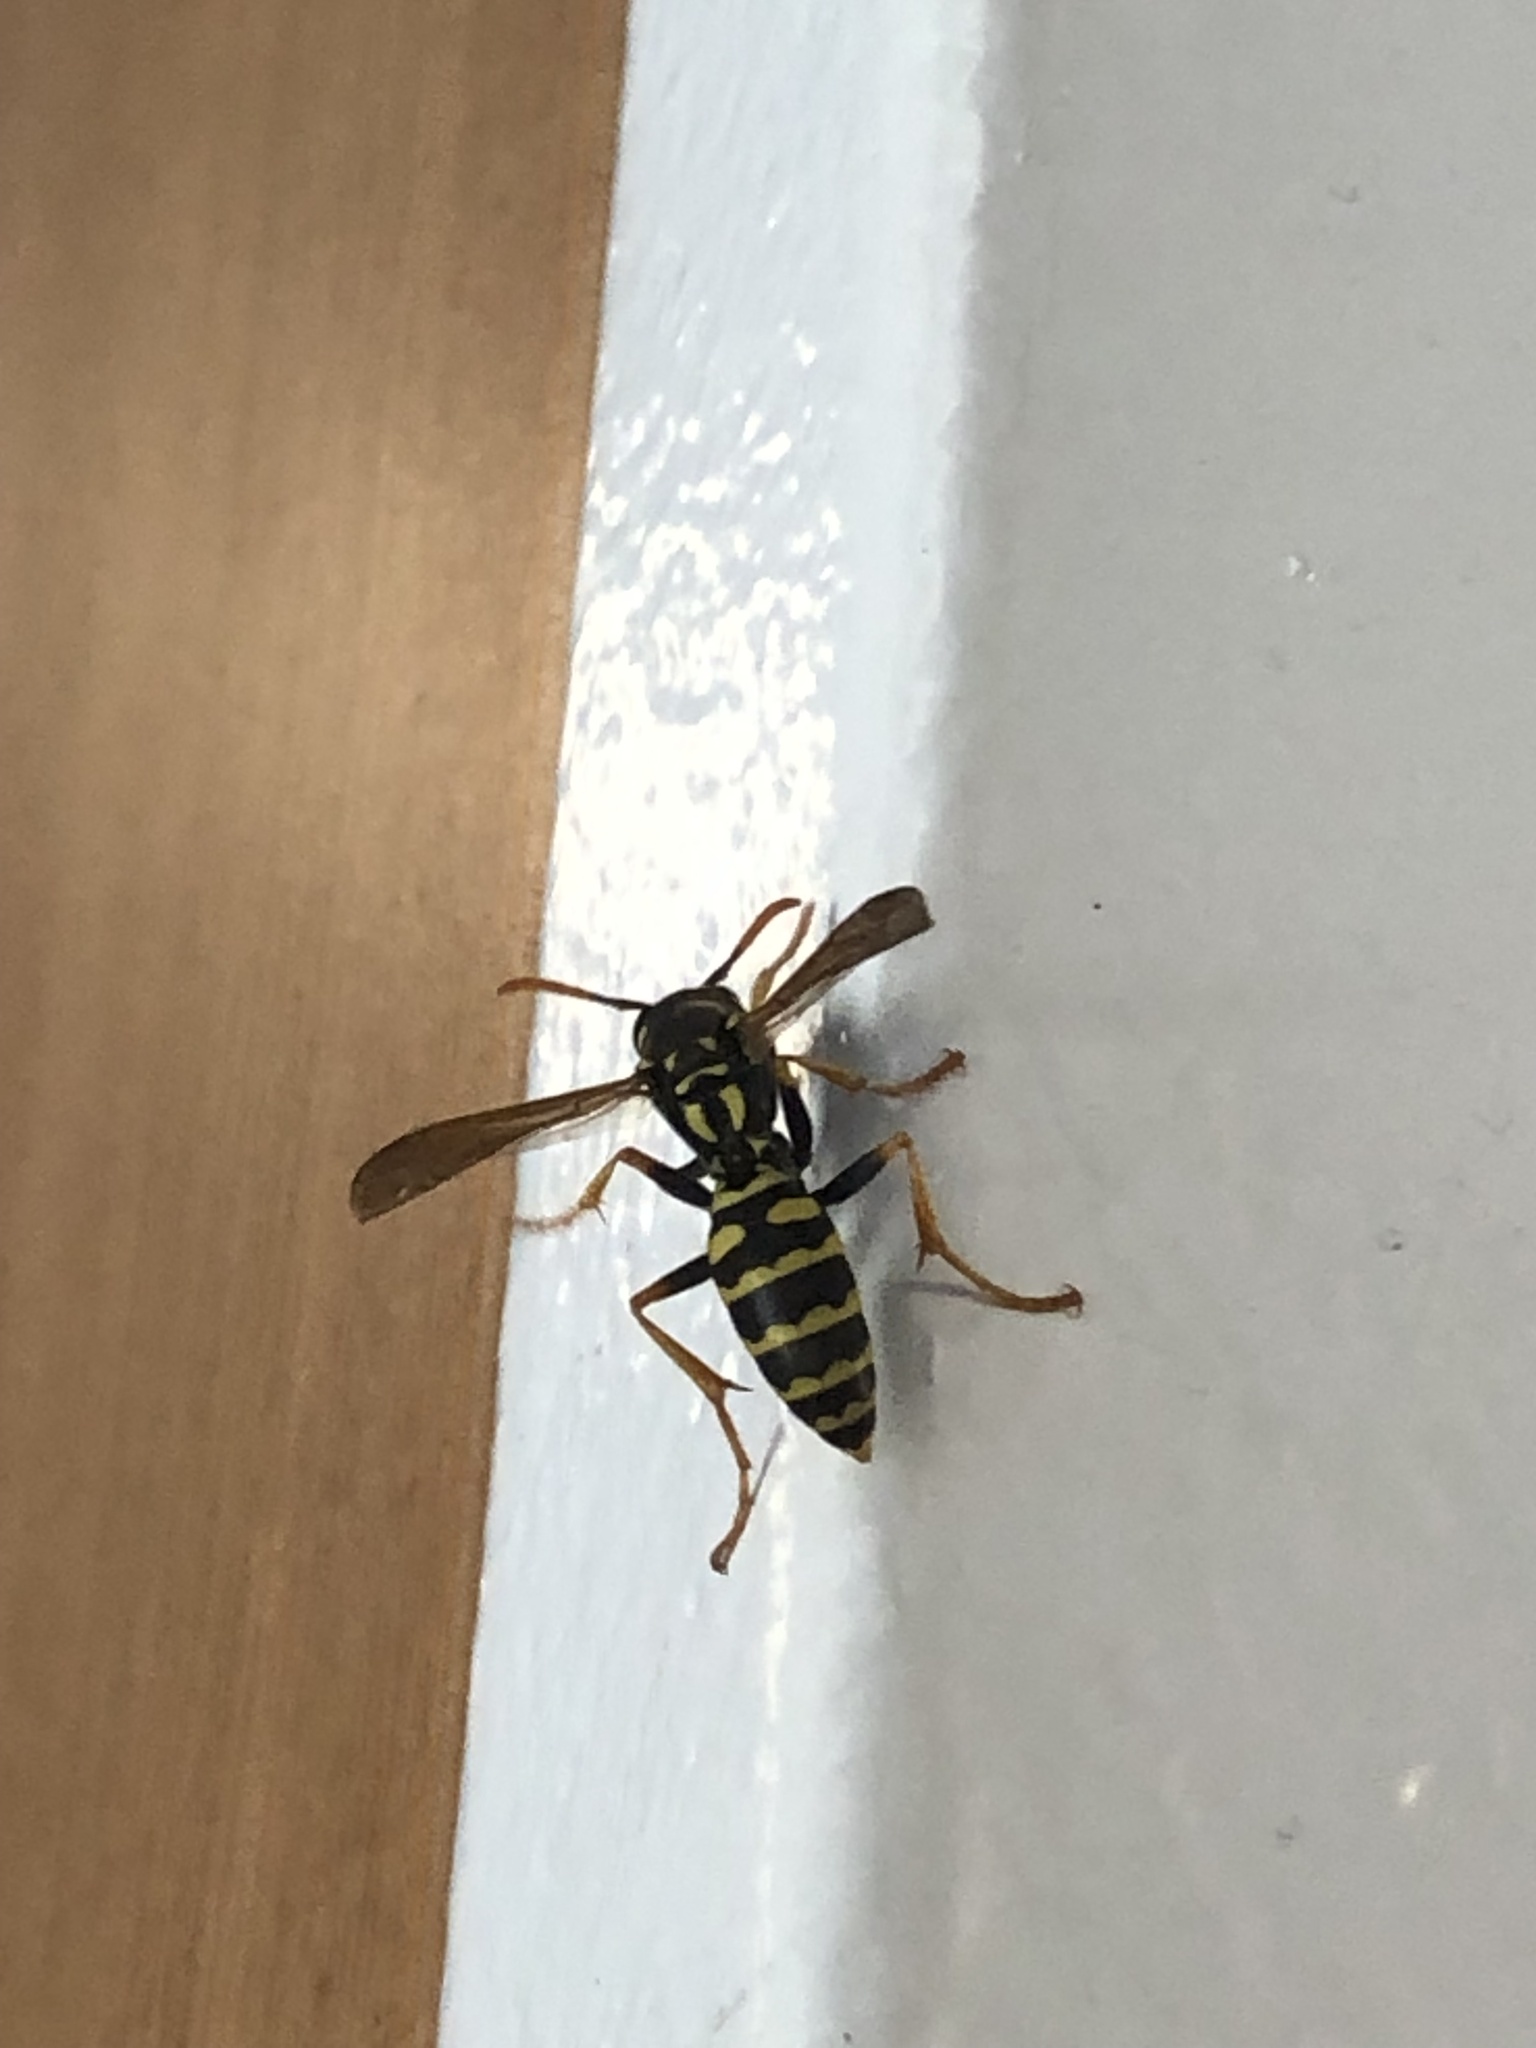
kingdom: Animalia
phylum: Arthropoda
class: Insecta
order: Hymenoptera
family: Eumenidae
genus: Polistes
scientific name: Polistes dominula
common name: Paper wasp
